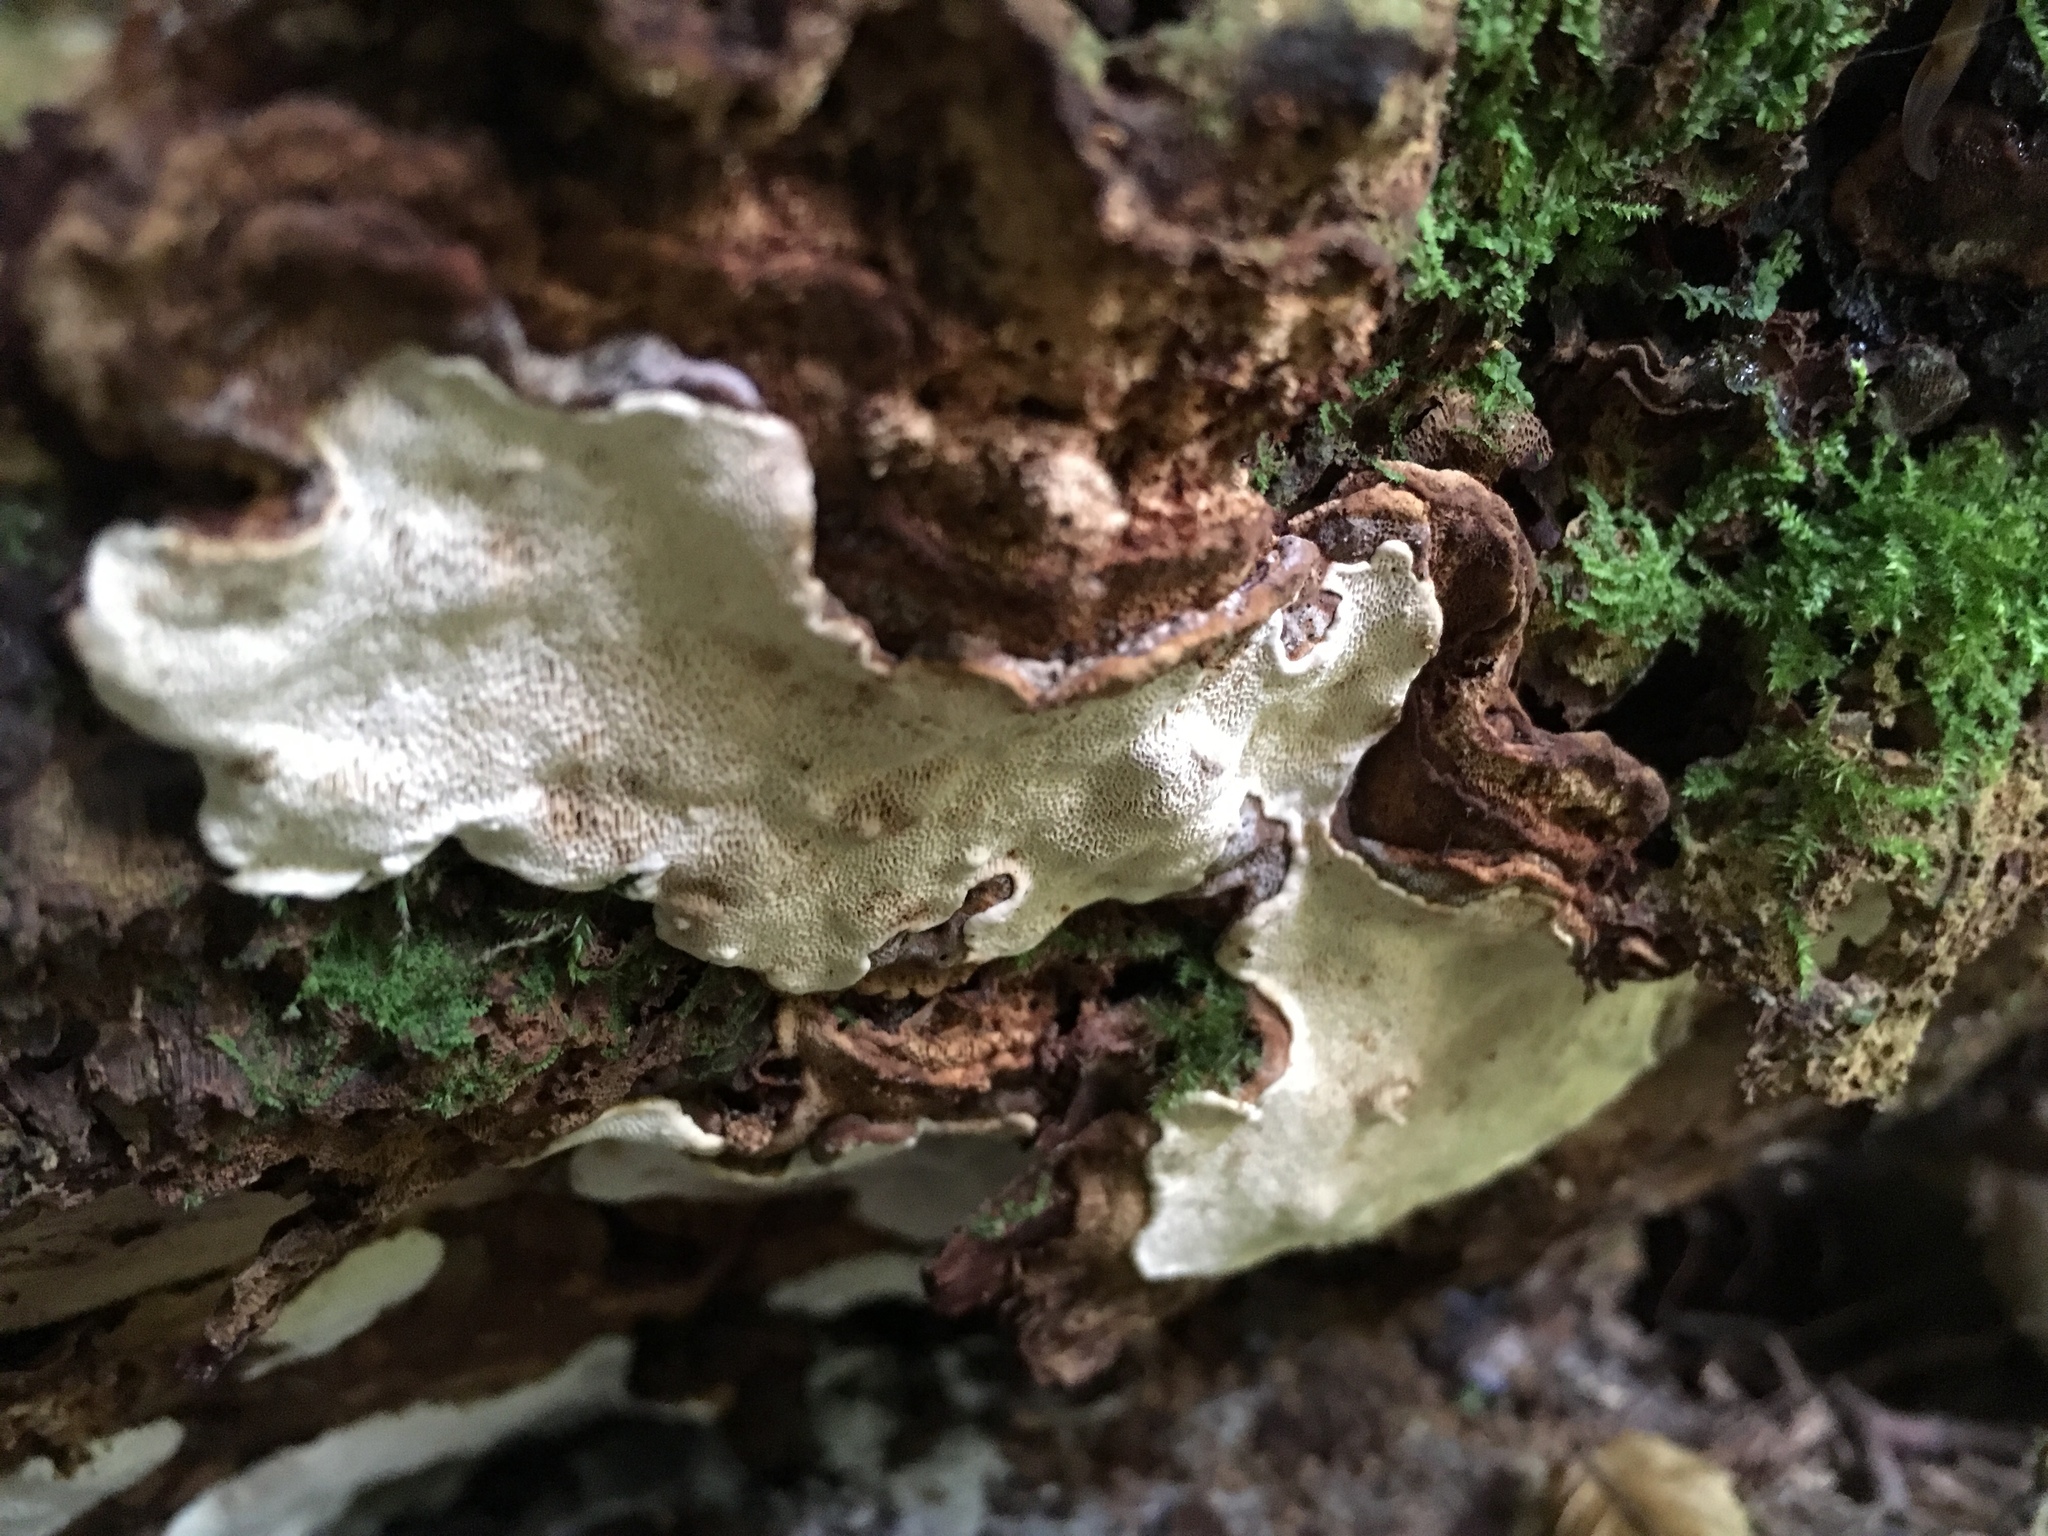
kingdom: Fungi
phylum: Basidiomycota
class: Agaricomycetes
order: Russulales
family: Bondarzewiaceae
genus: Heterobasidion
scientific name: Heterobasidion parviporum
